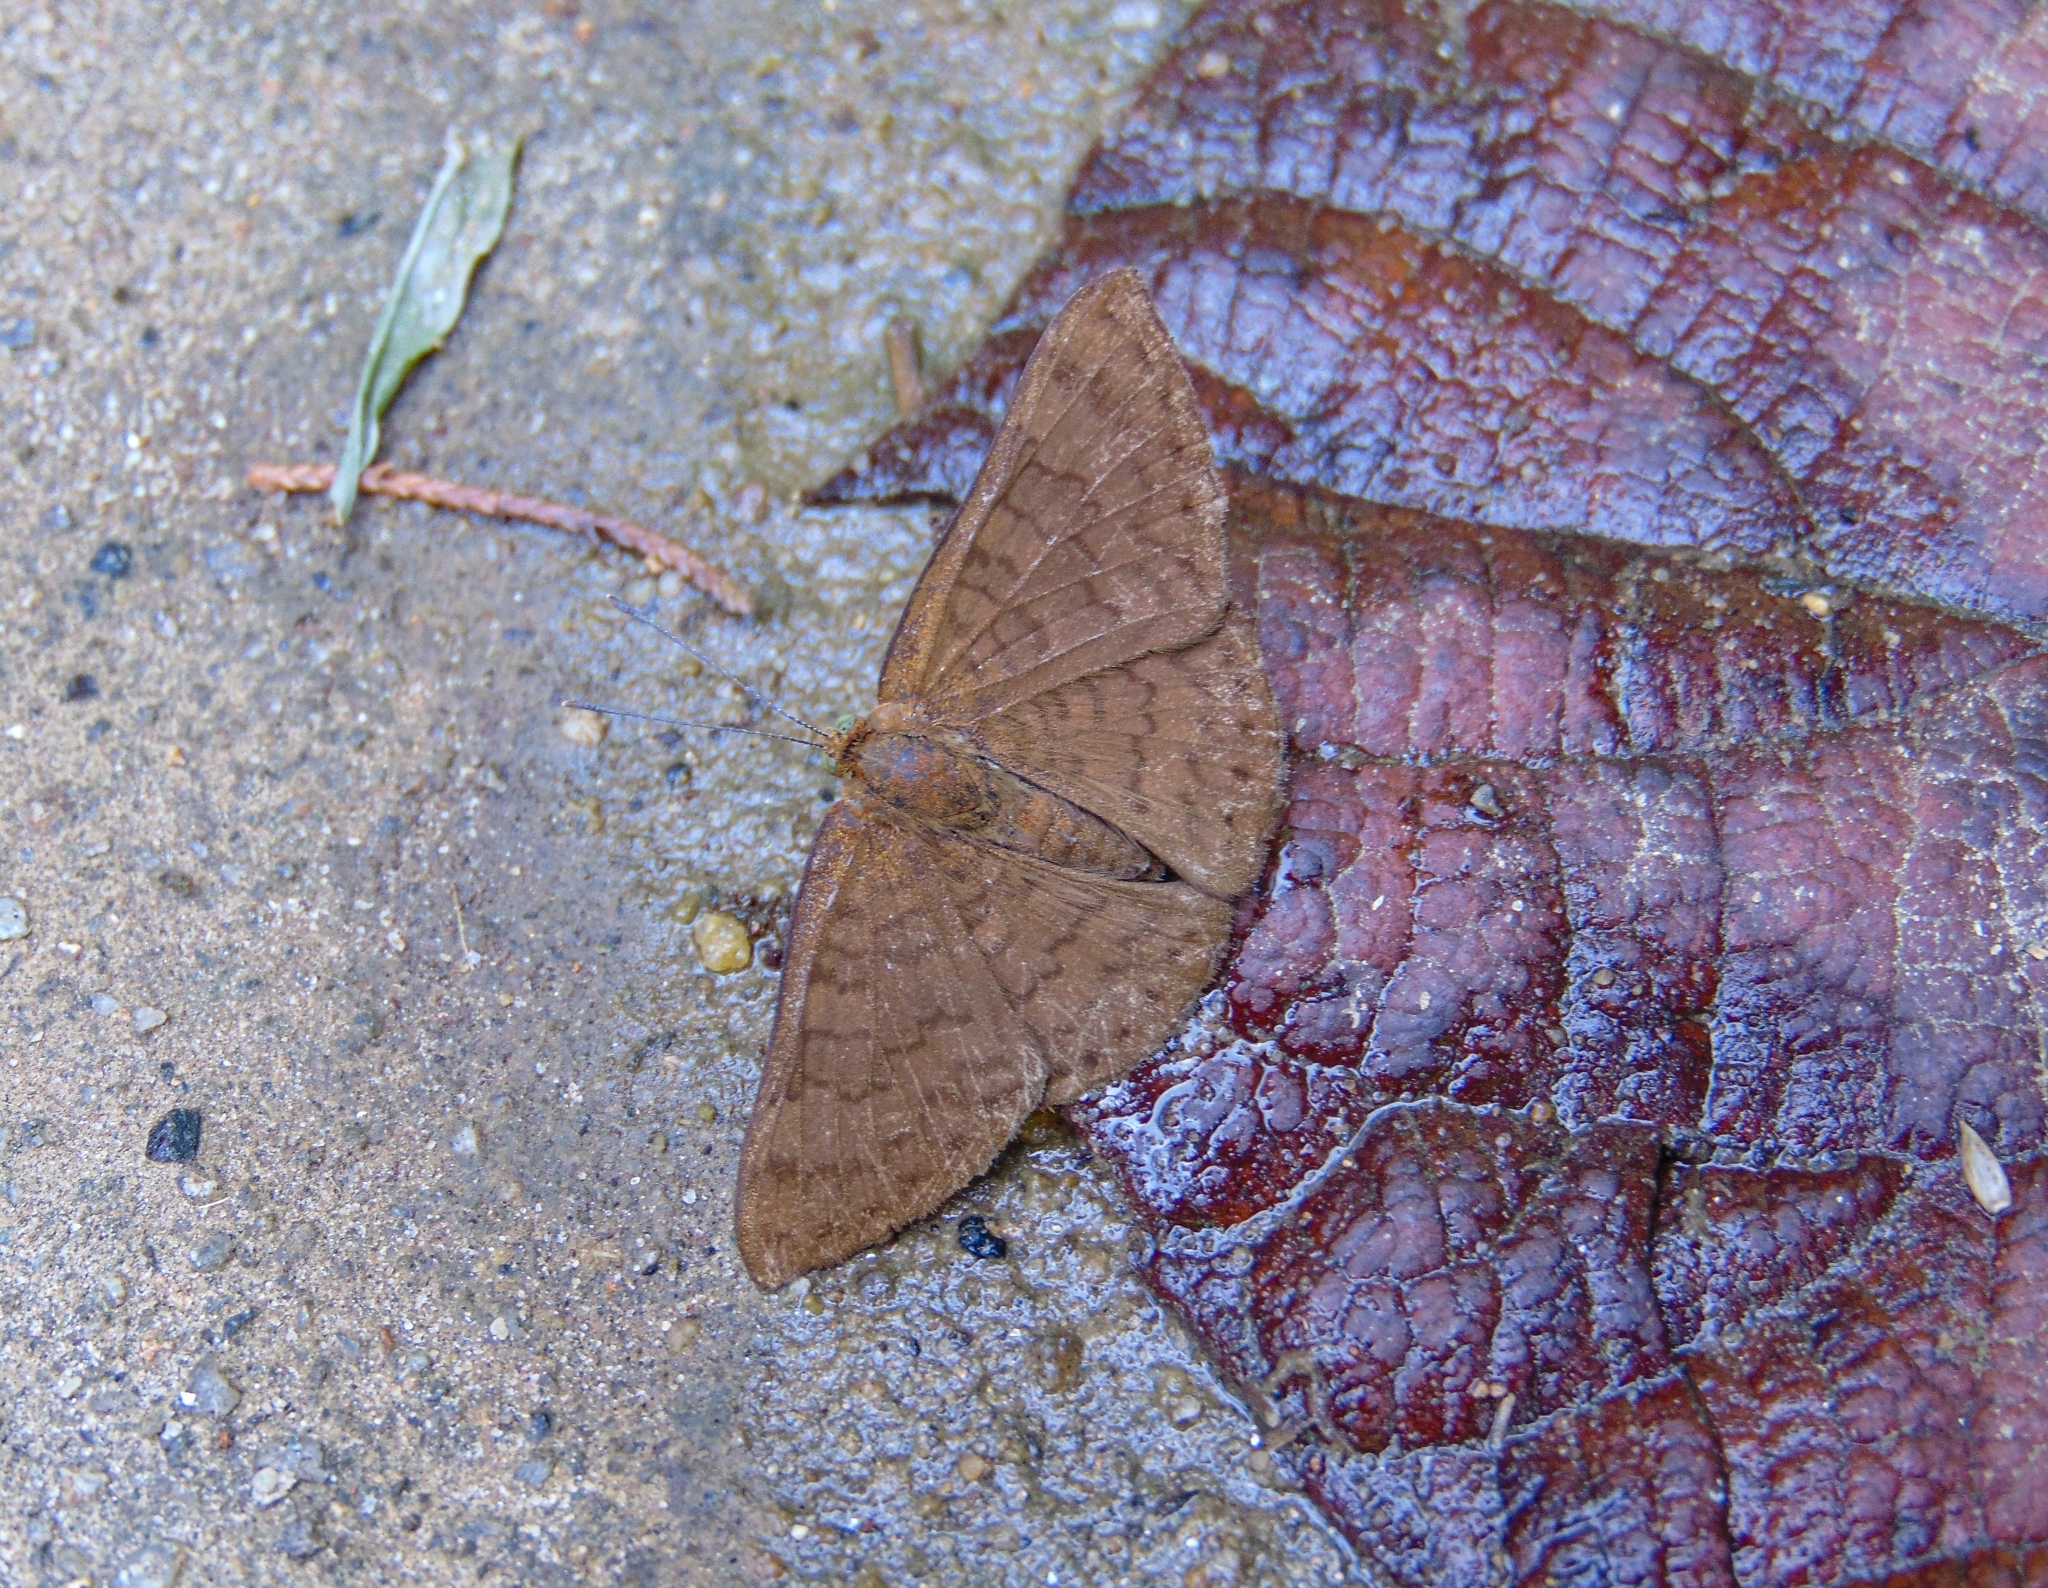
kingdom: Animalia
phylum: Arthropoda
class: Insecta
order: Lepidoptera
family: Lycaenidae
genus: Emesis
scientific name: Emesis ocypore
